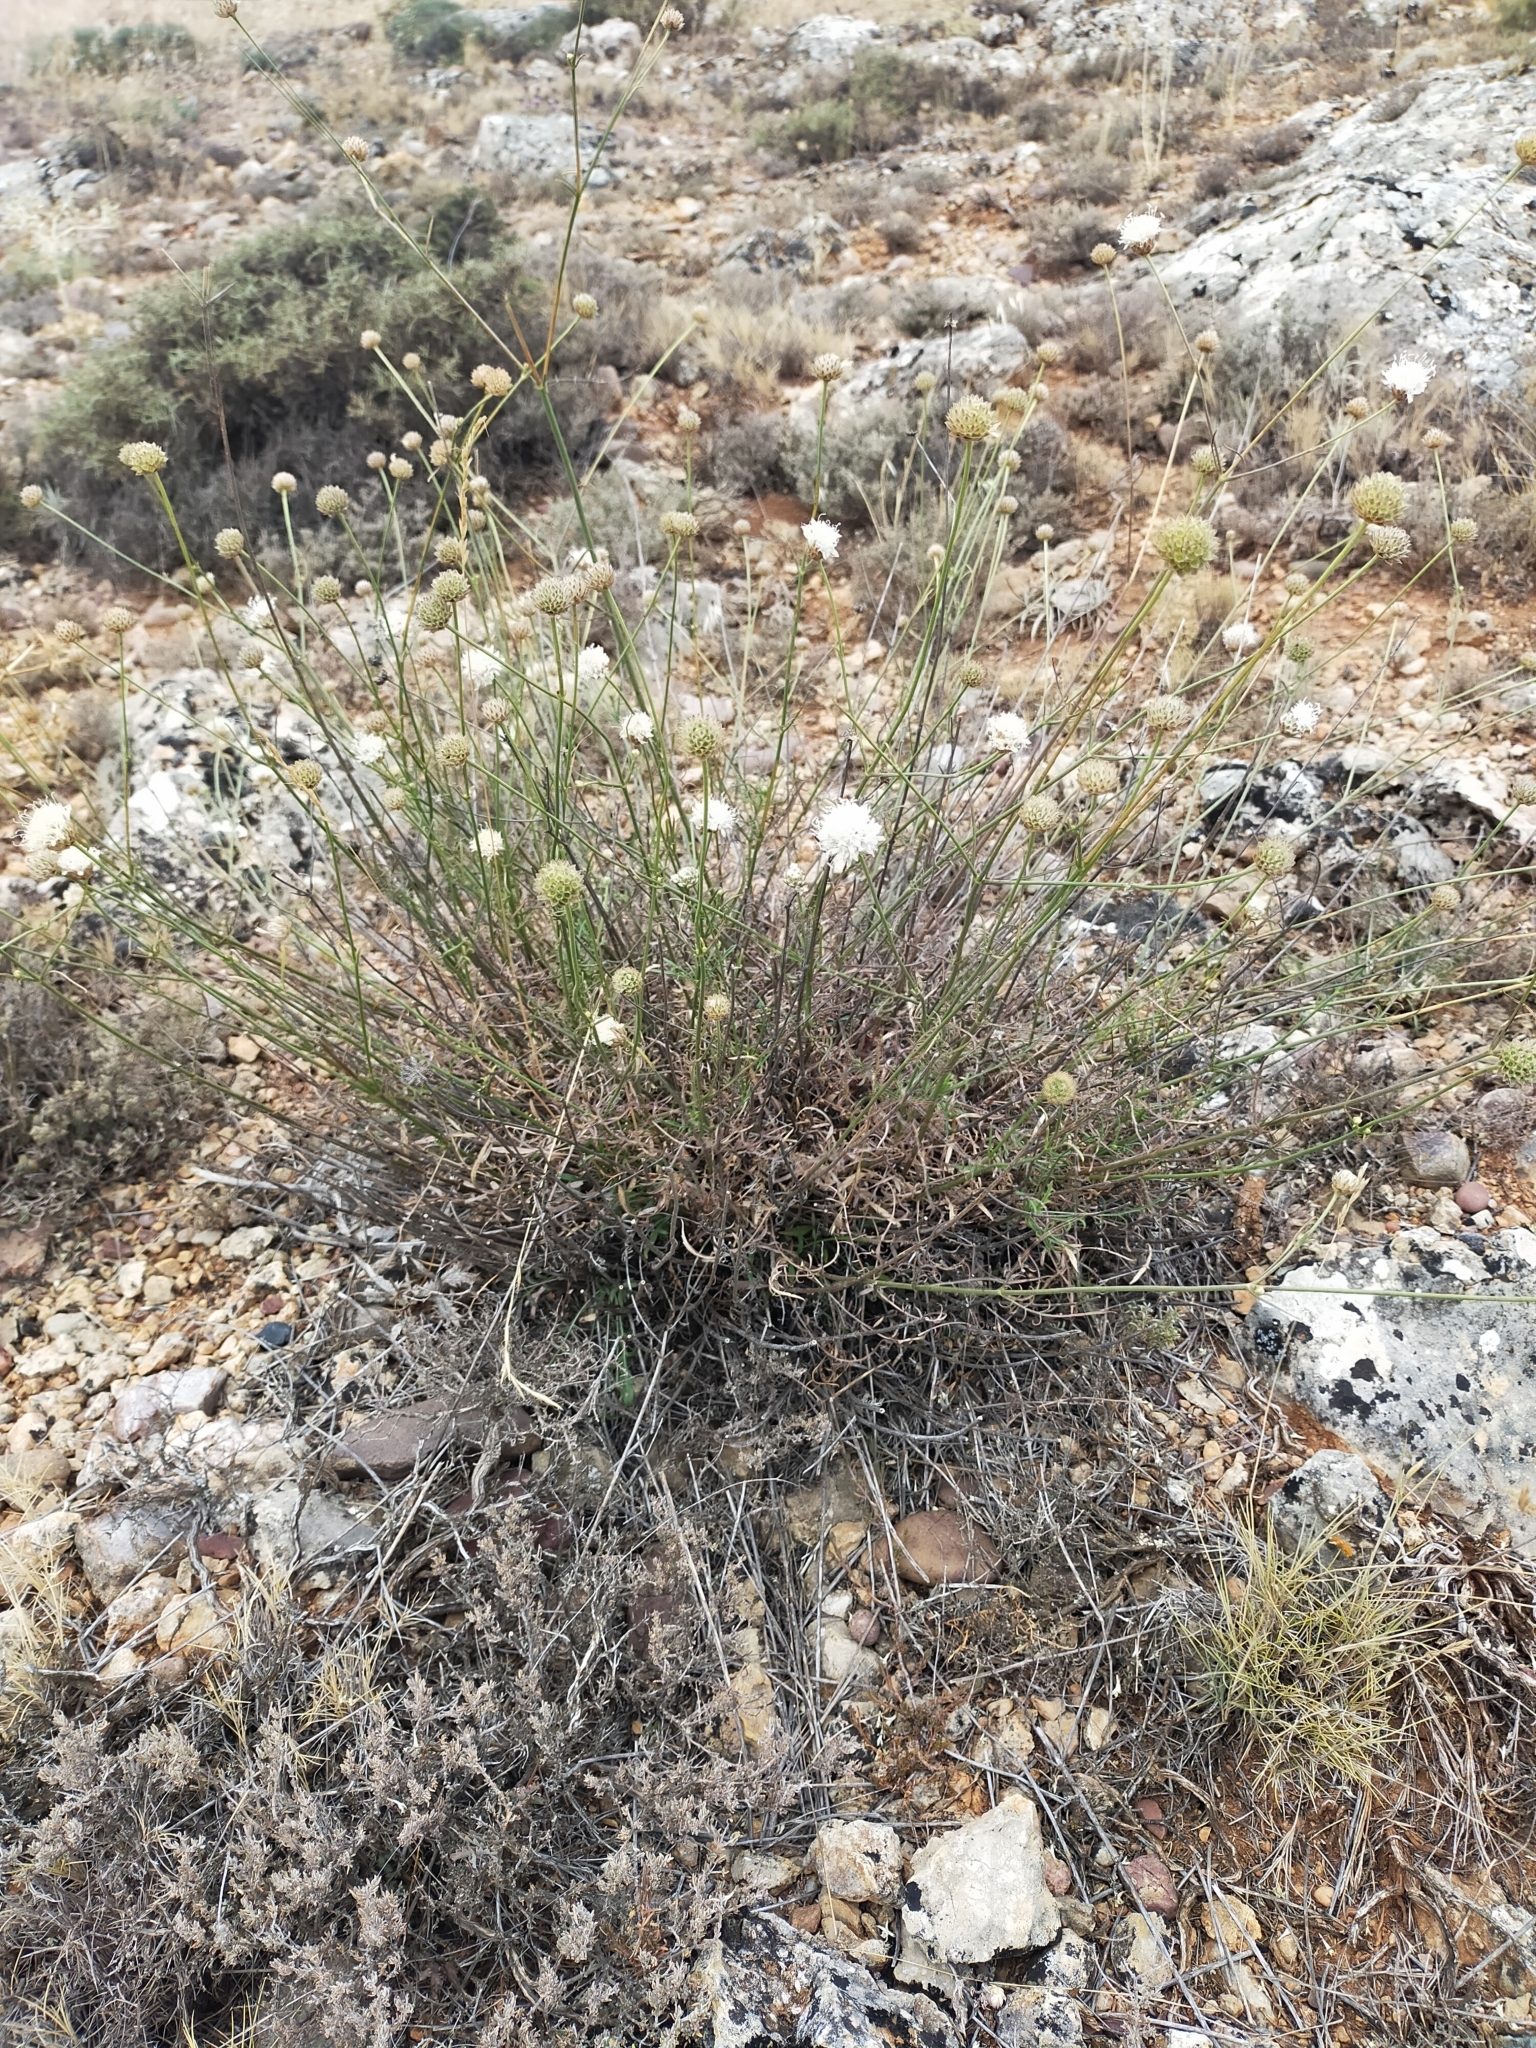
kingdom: Plantae
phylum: Tracheophyta
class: Magnoliopsida
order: Dipsacales
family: Caprifoliaceae
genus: Cephalaria
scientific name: Cephalaria leucantha
